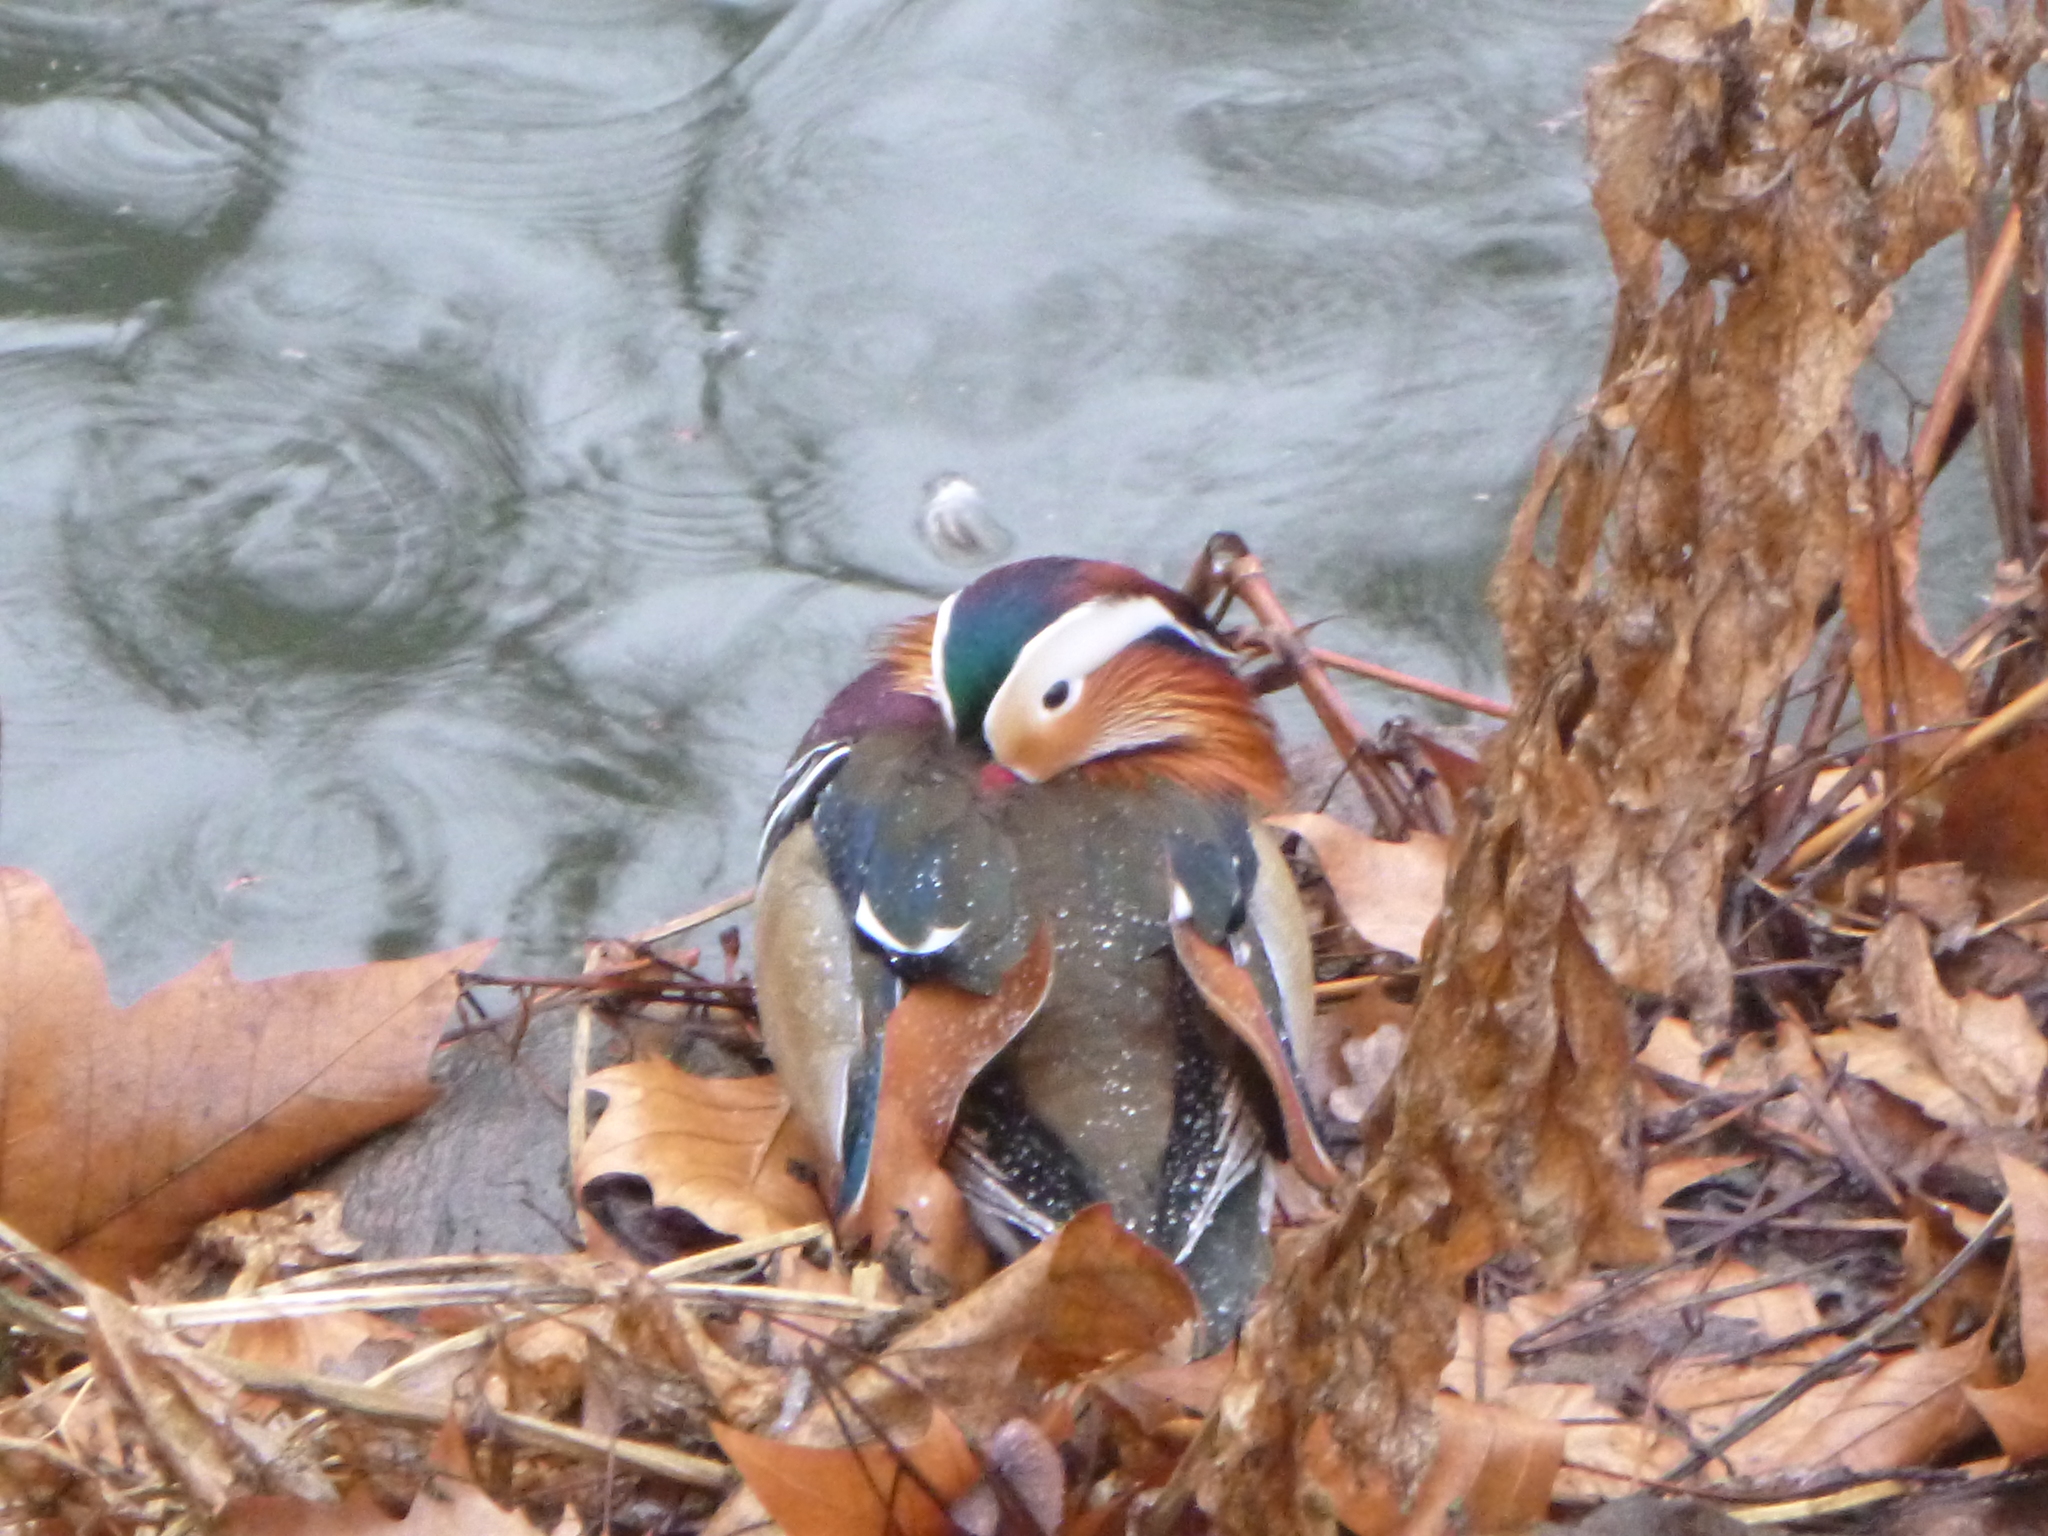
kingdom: Animalia
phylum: Chordata
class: Aves
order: Anseriformes
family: Anatidae
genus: Aix
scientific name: Aix galericulata
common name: Mandarin duck
